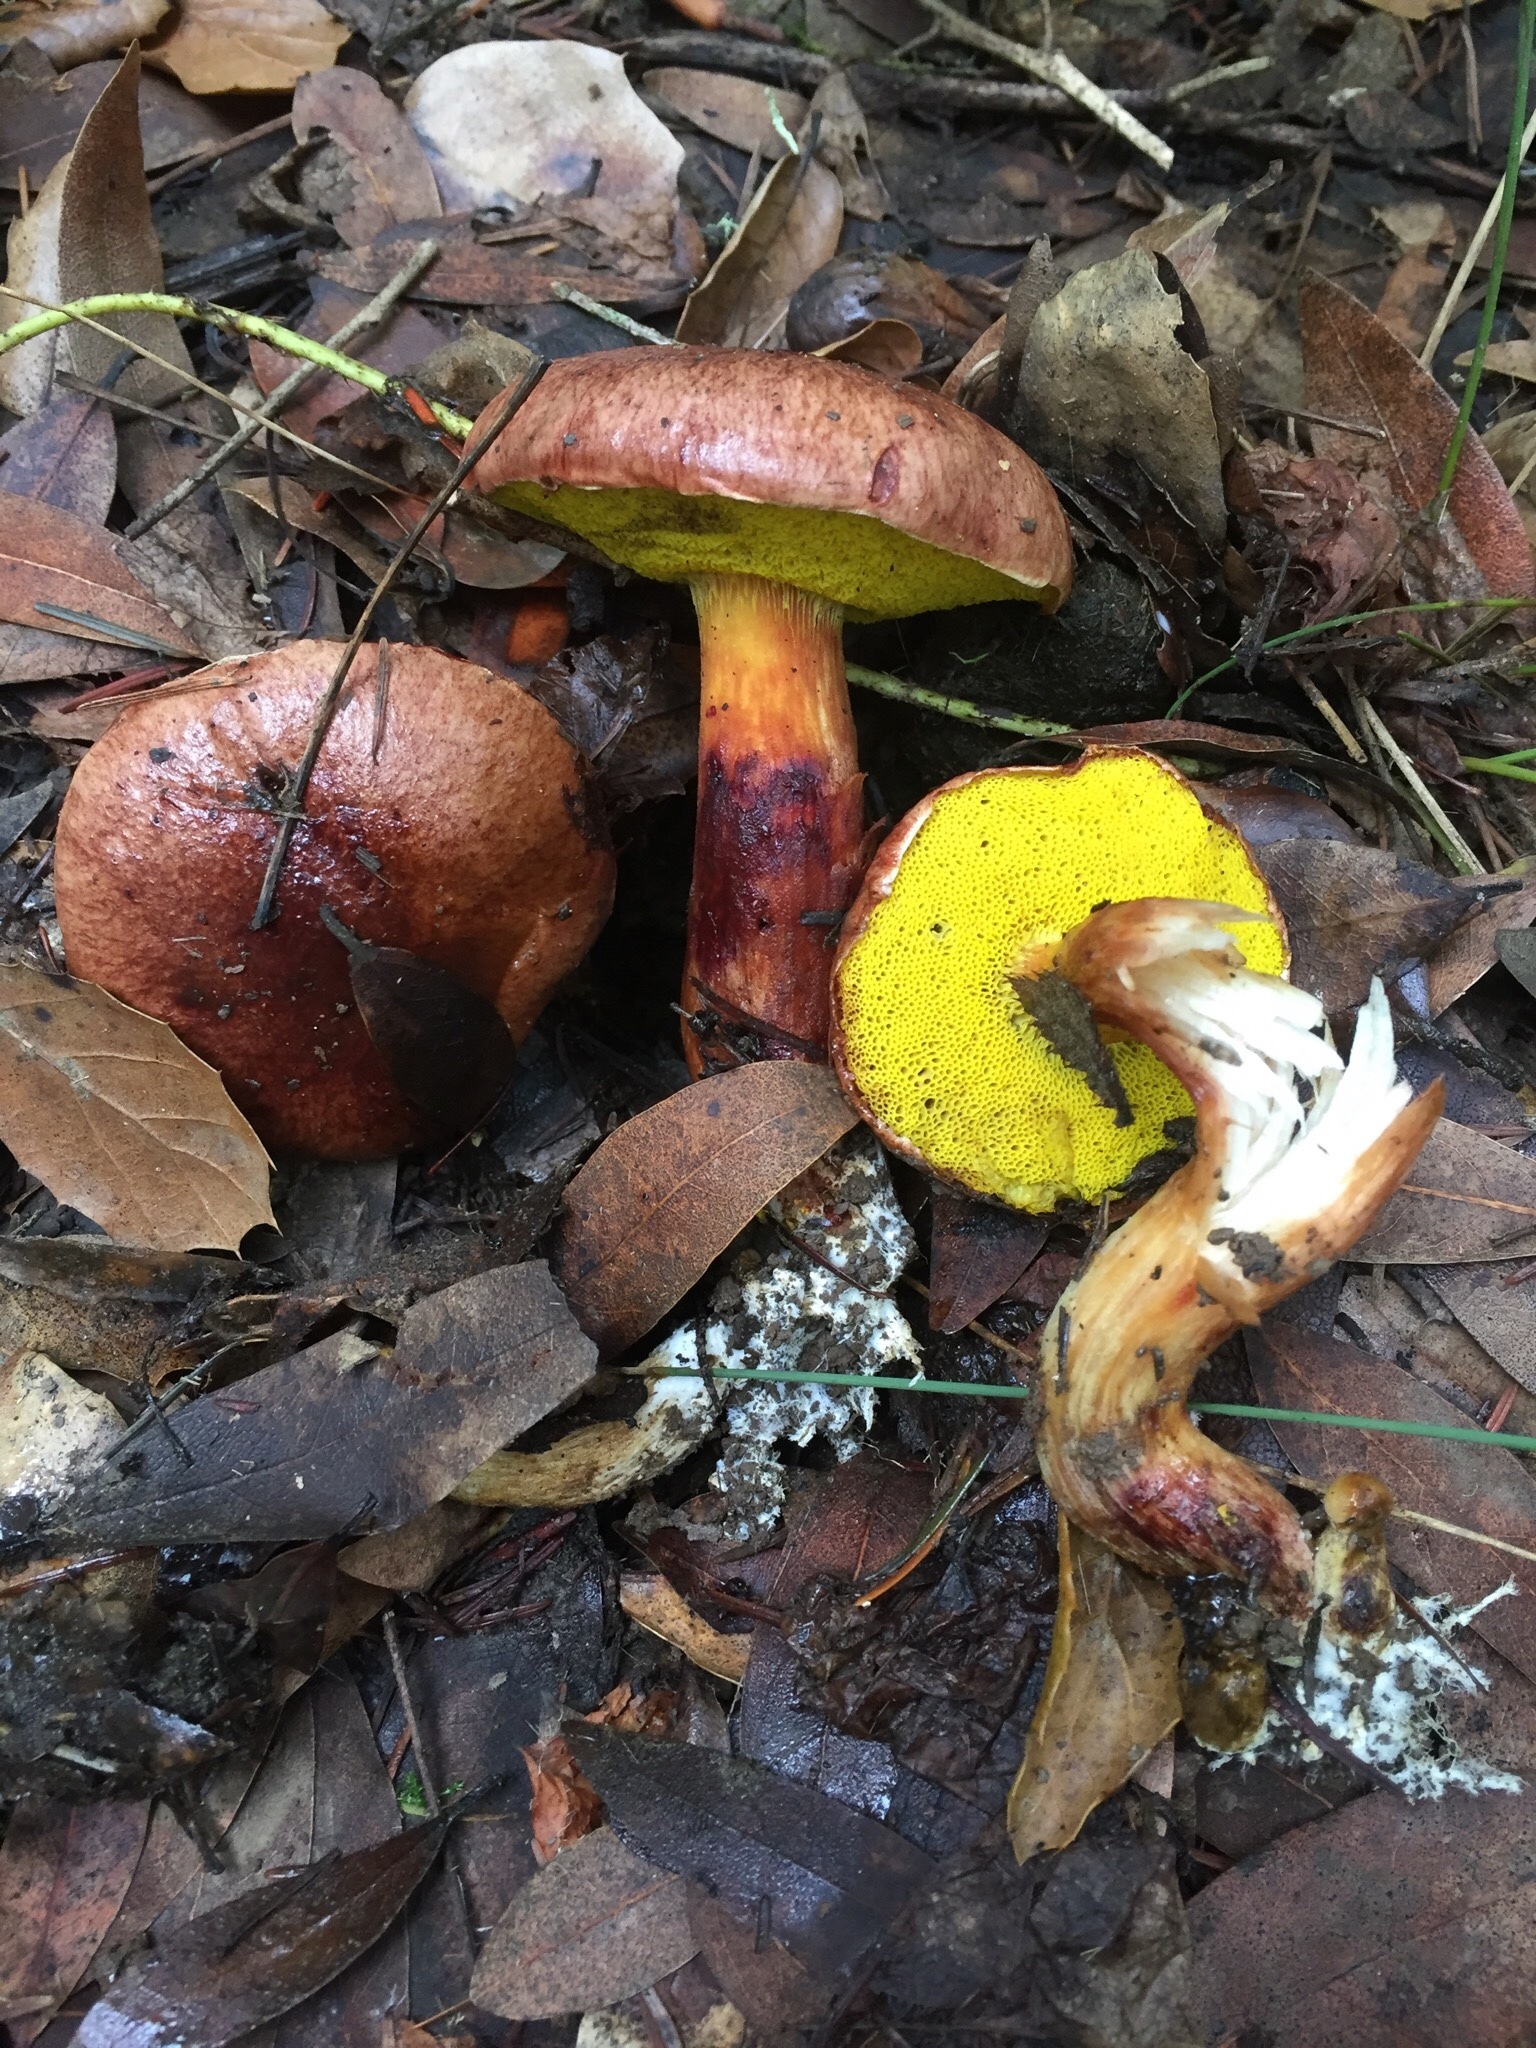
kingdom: Fungi
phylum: Basidiomycota
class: Agaricomycetes
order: Boletales
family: Boletaceae
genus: Aureoboletus
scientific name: Aureoboletus flaviporus
